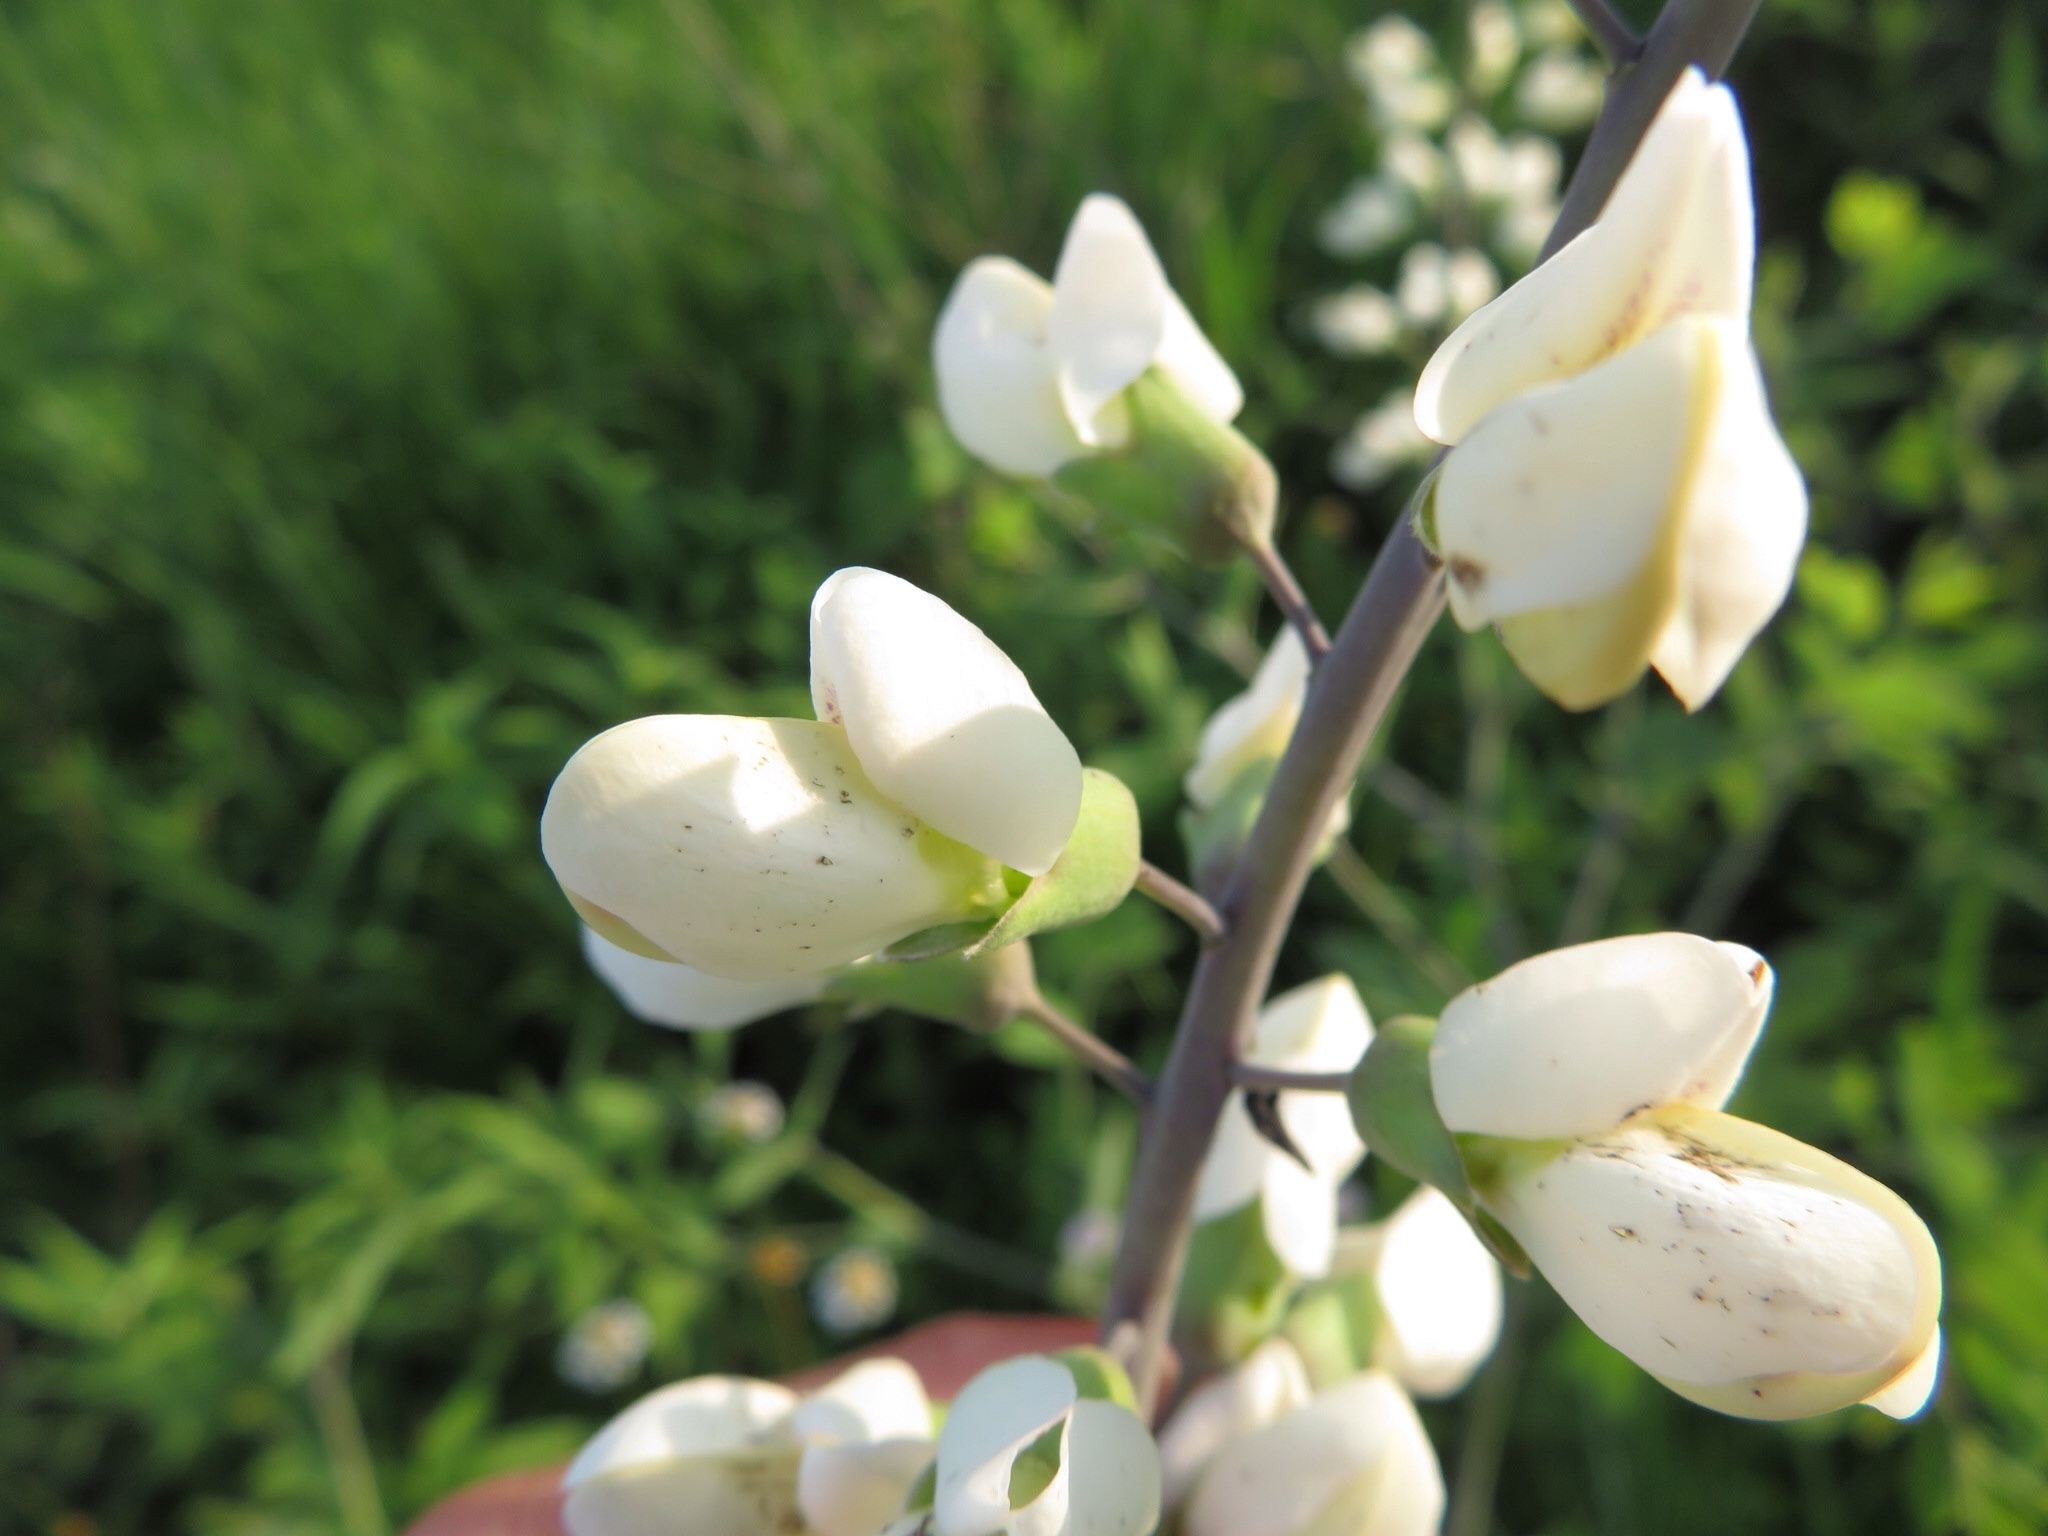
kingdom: Plantae
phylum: Tracheophyta
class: Magnoliopsida
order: Fabales
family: Fabaceae
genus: Baptisia
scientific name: Baptisia alba
